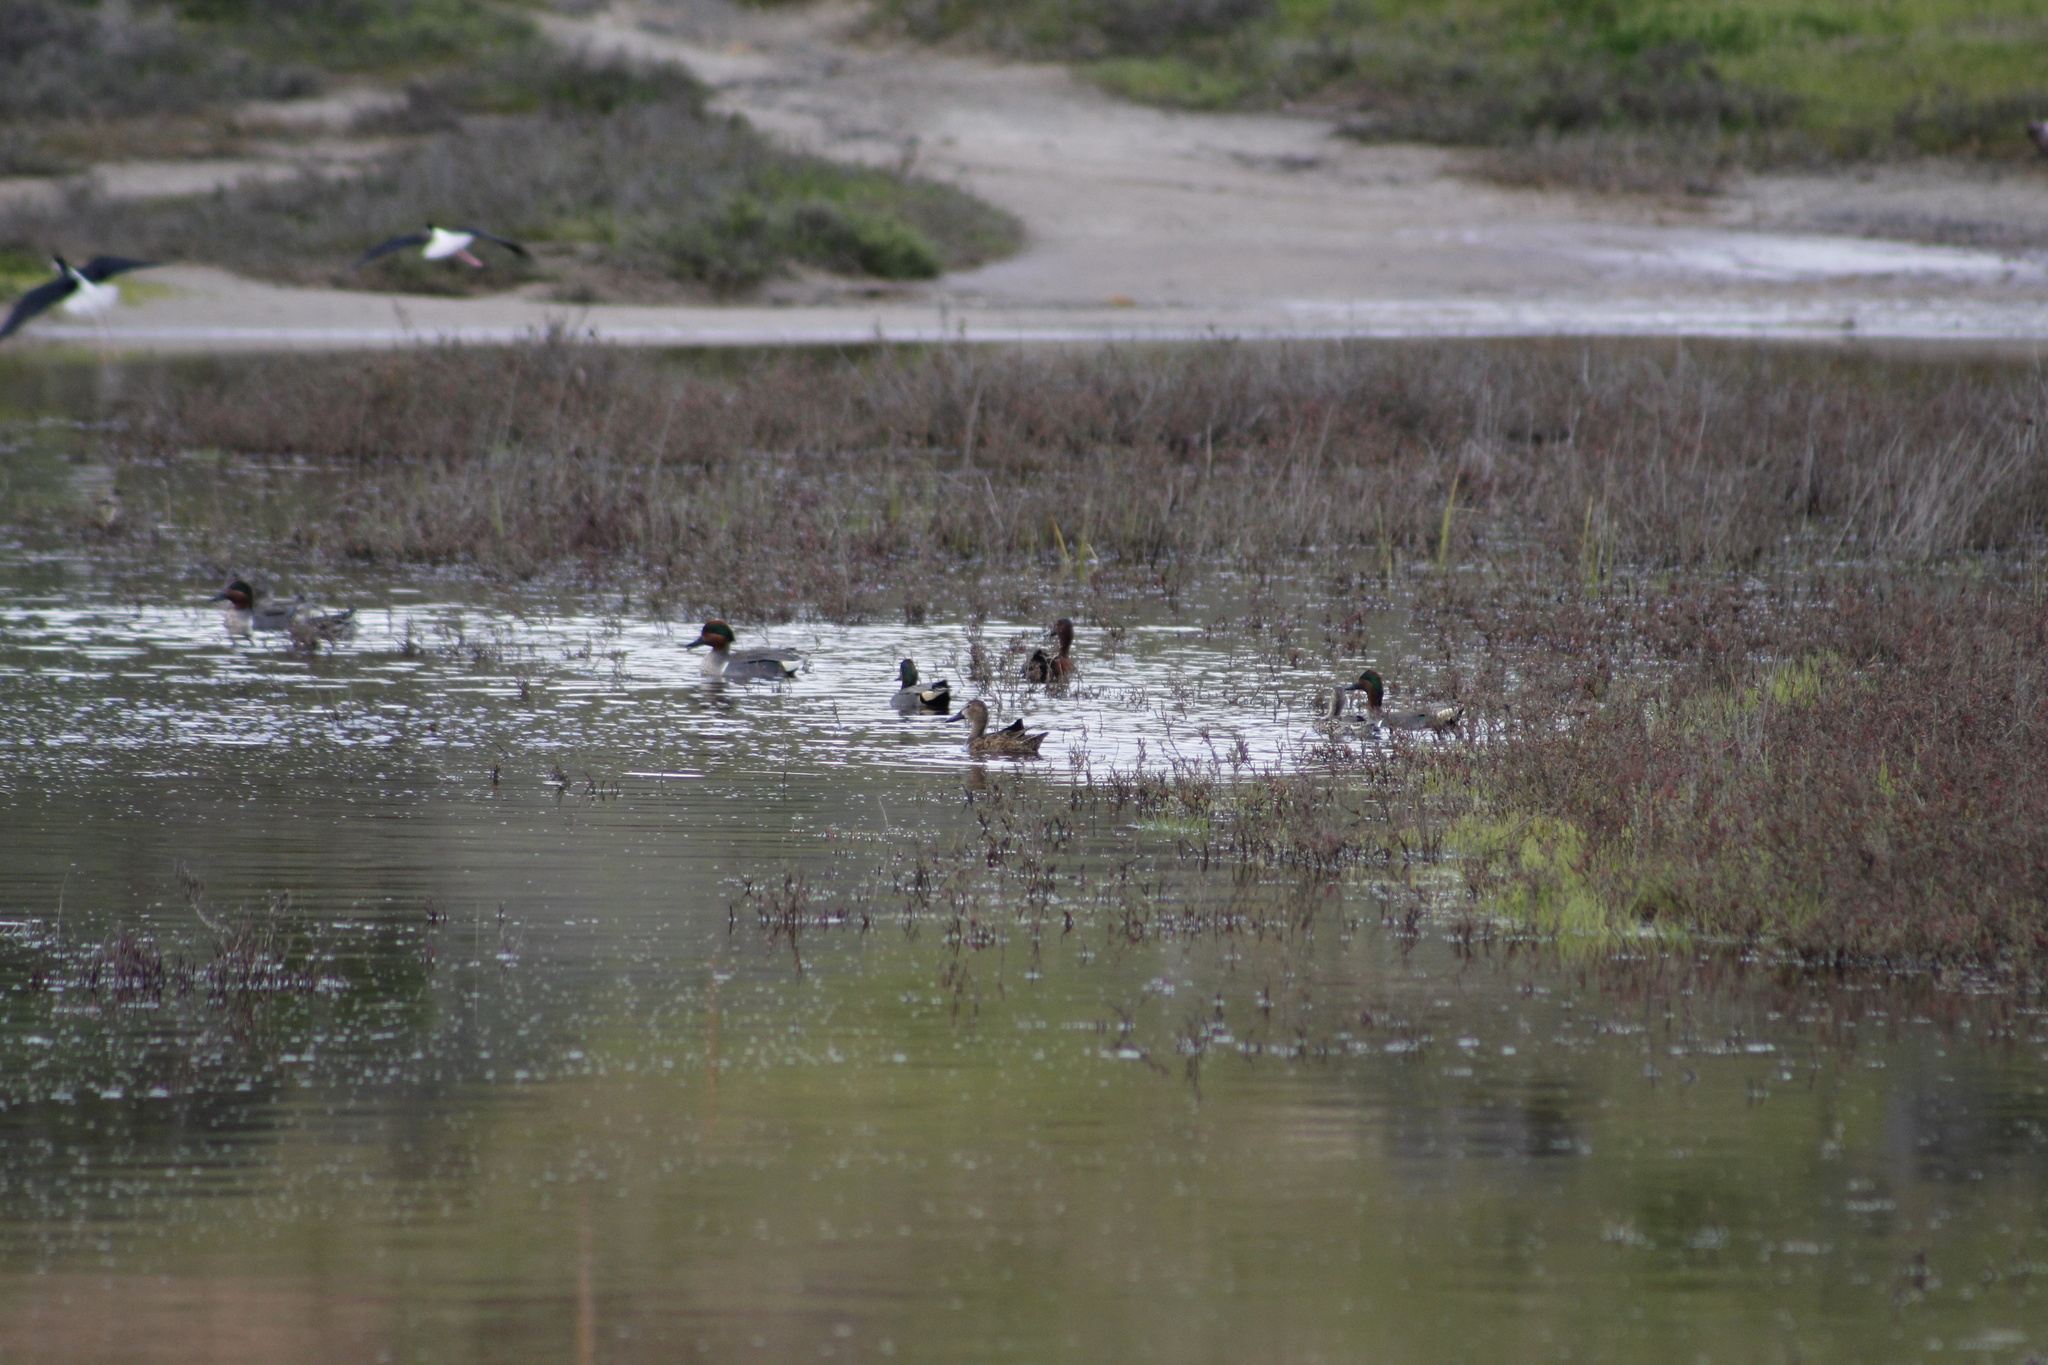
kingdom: Animalia
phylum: Chordata
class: Aves
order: Anseriformes
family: Anatidae
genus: Anas
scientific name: Anas crecca
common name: Eurasian teal
